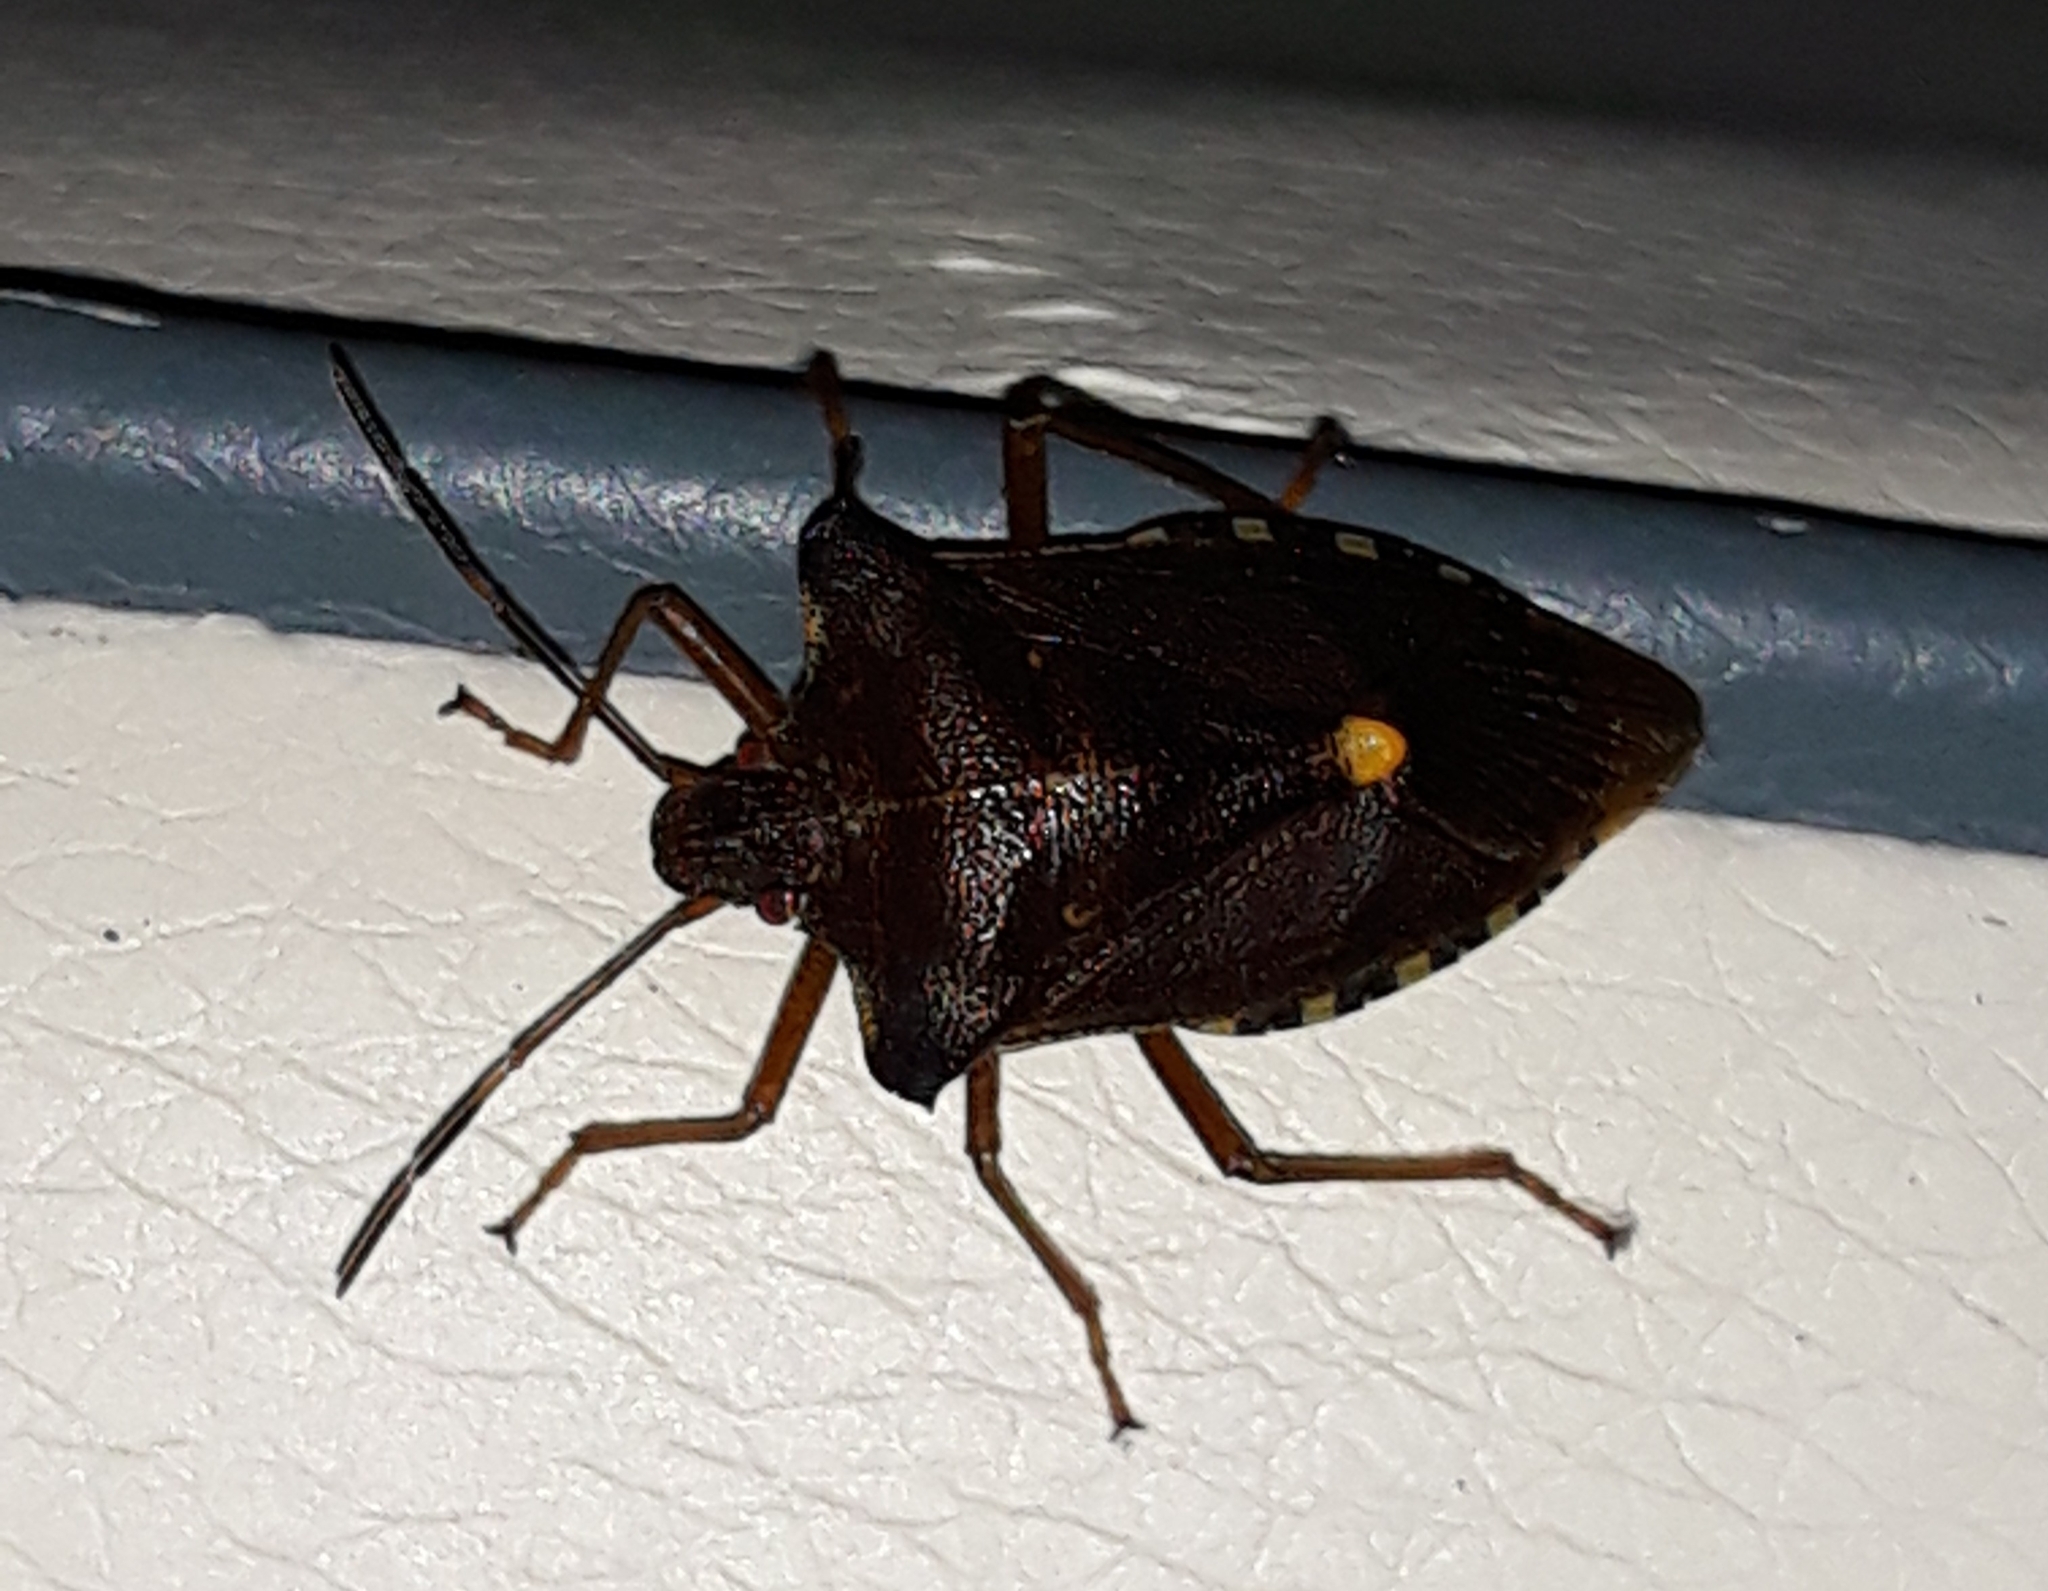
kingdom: Animalia
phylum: Arthropoda
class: Insecta
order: Hemiptera
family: Pentatomidae
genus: Pentatoma
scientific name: Pentatoma rufipes
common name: Forest bug
